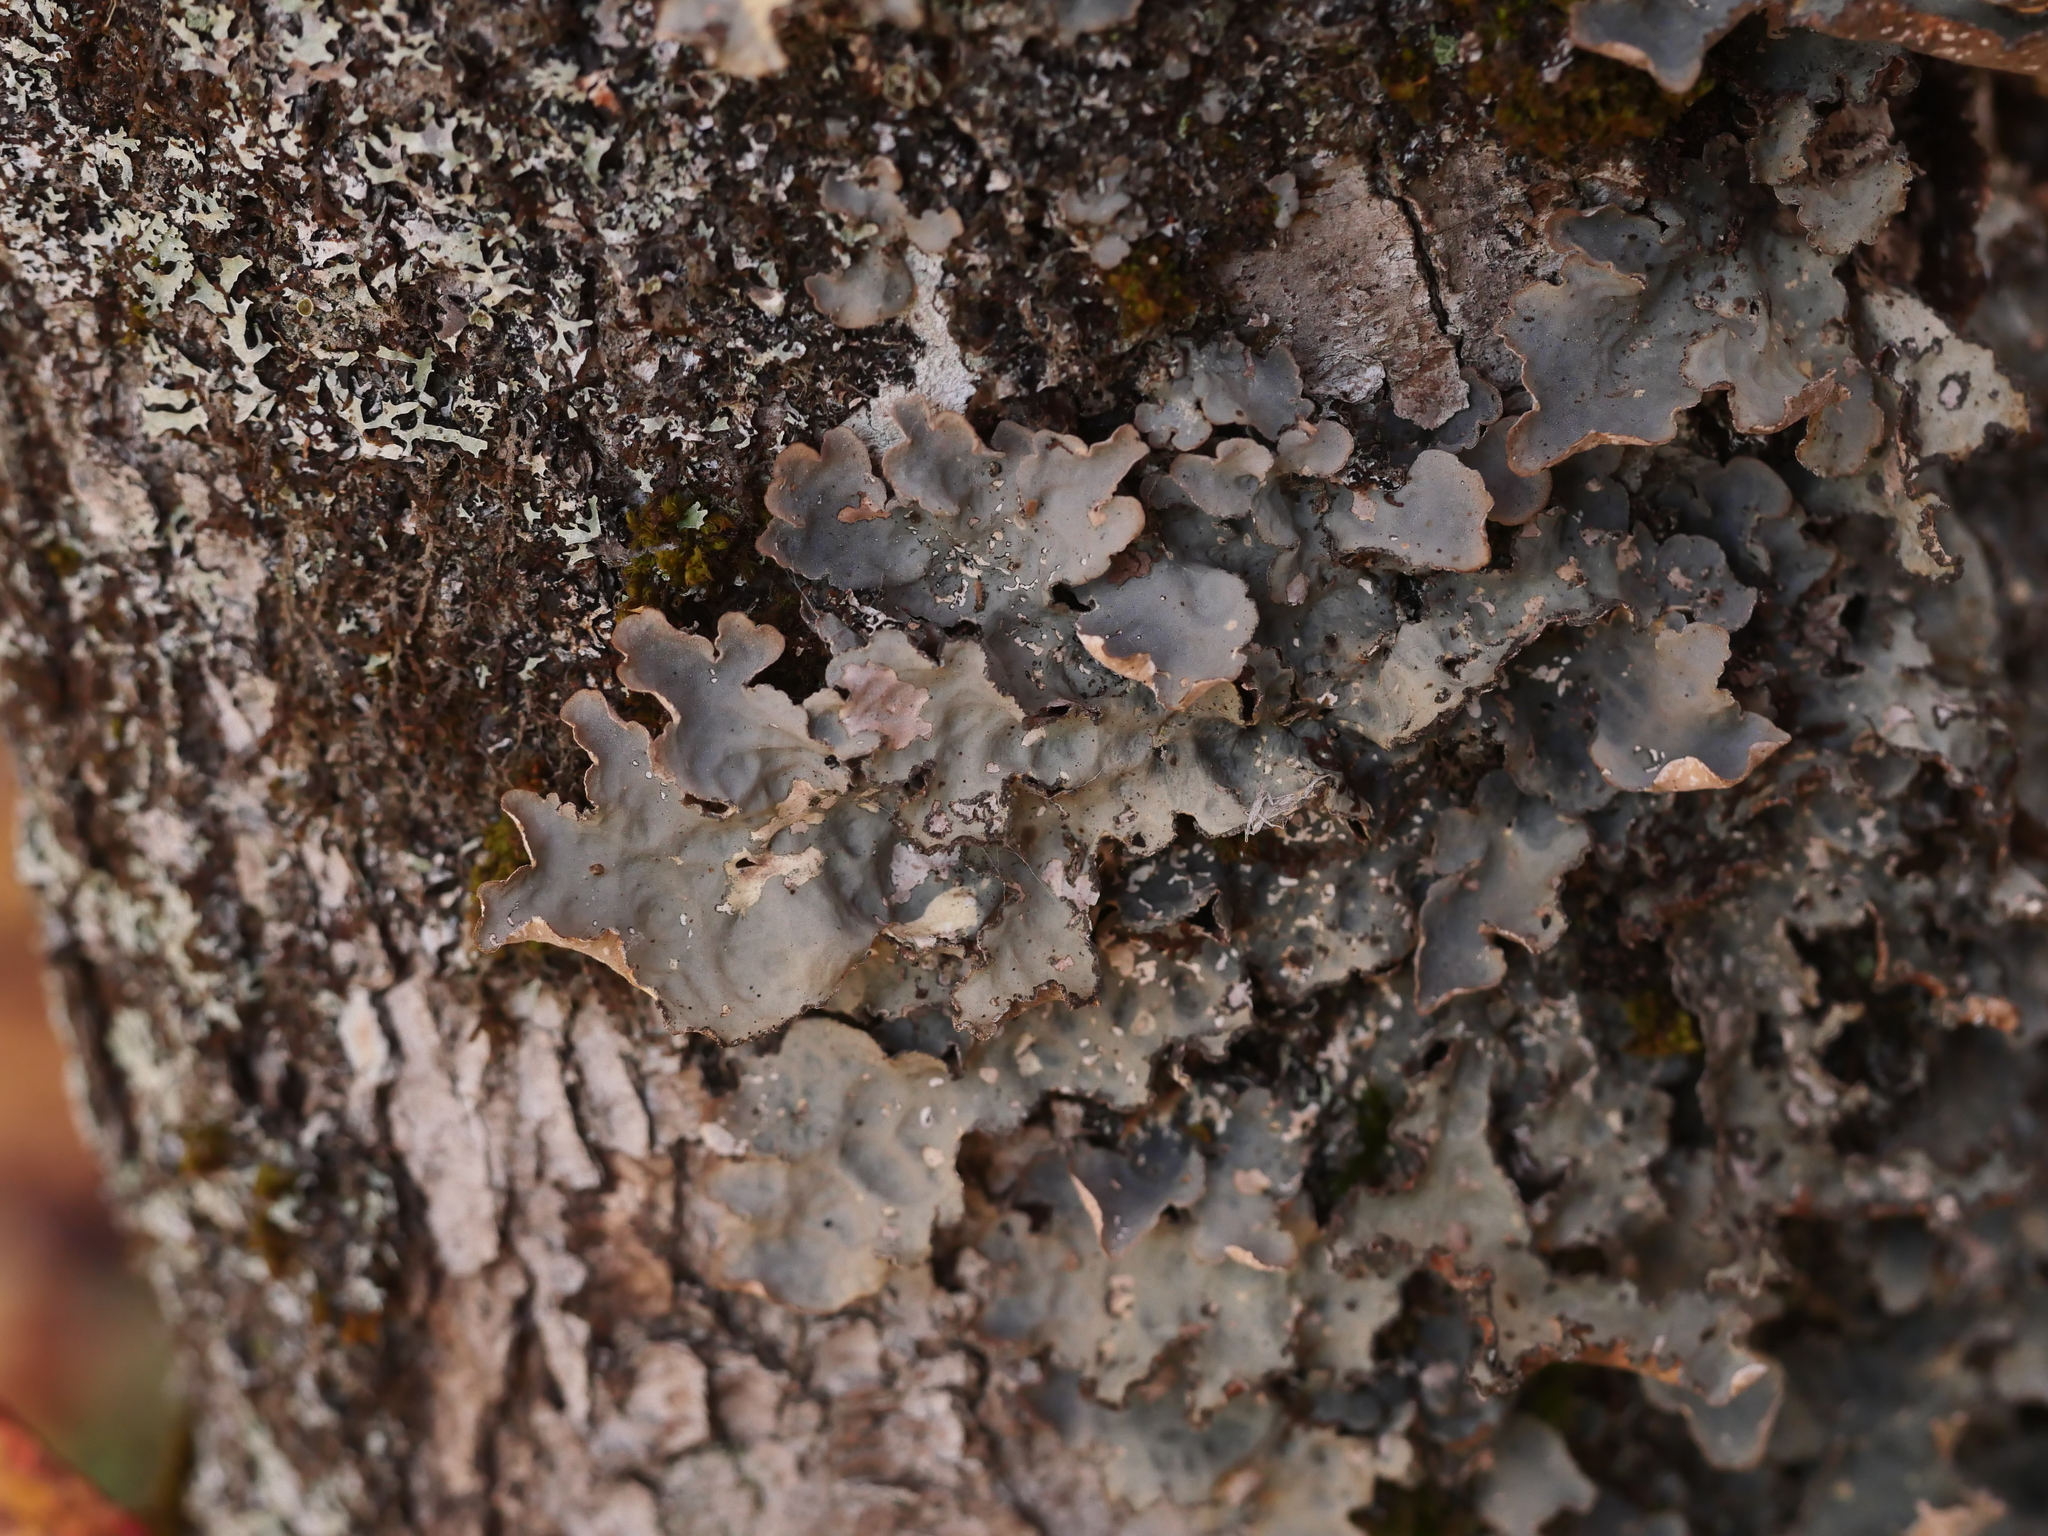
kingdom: Fungi
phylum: Ascomycota
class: Lecanoromycetes
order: Peltigerales
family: Lobariaceae
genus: Lobarina
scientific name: Lobarina scrobiculata
